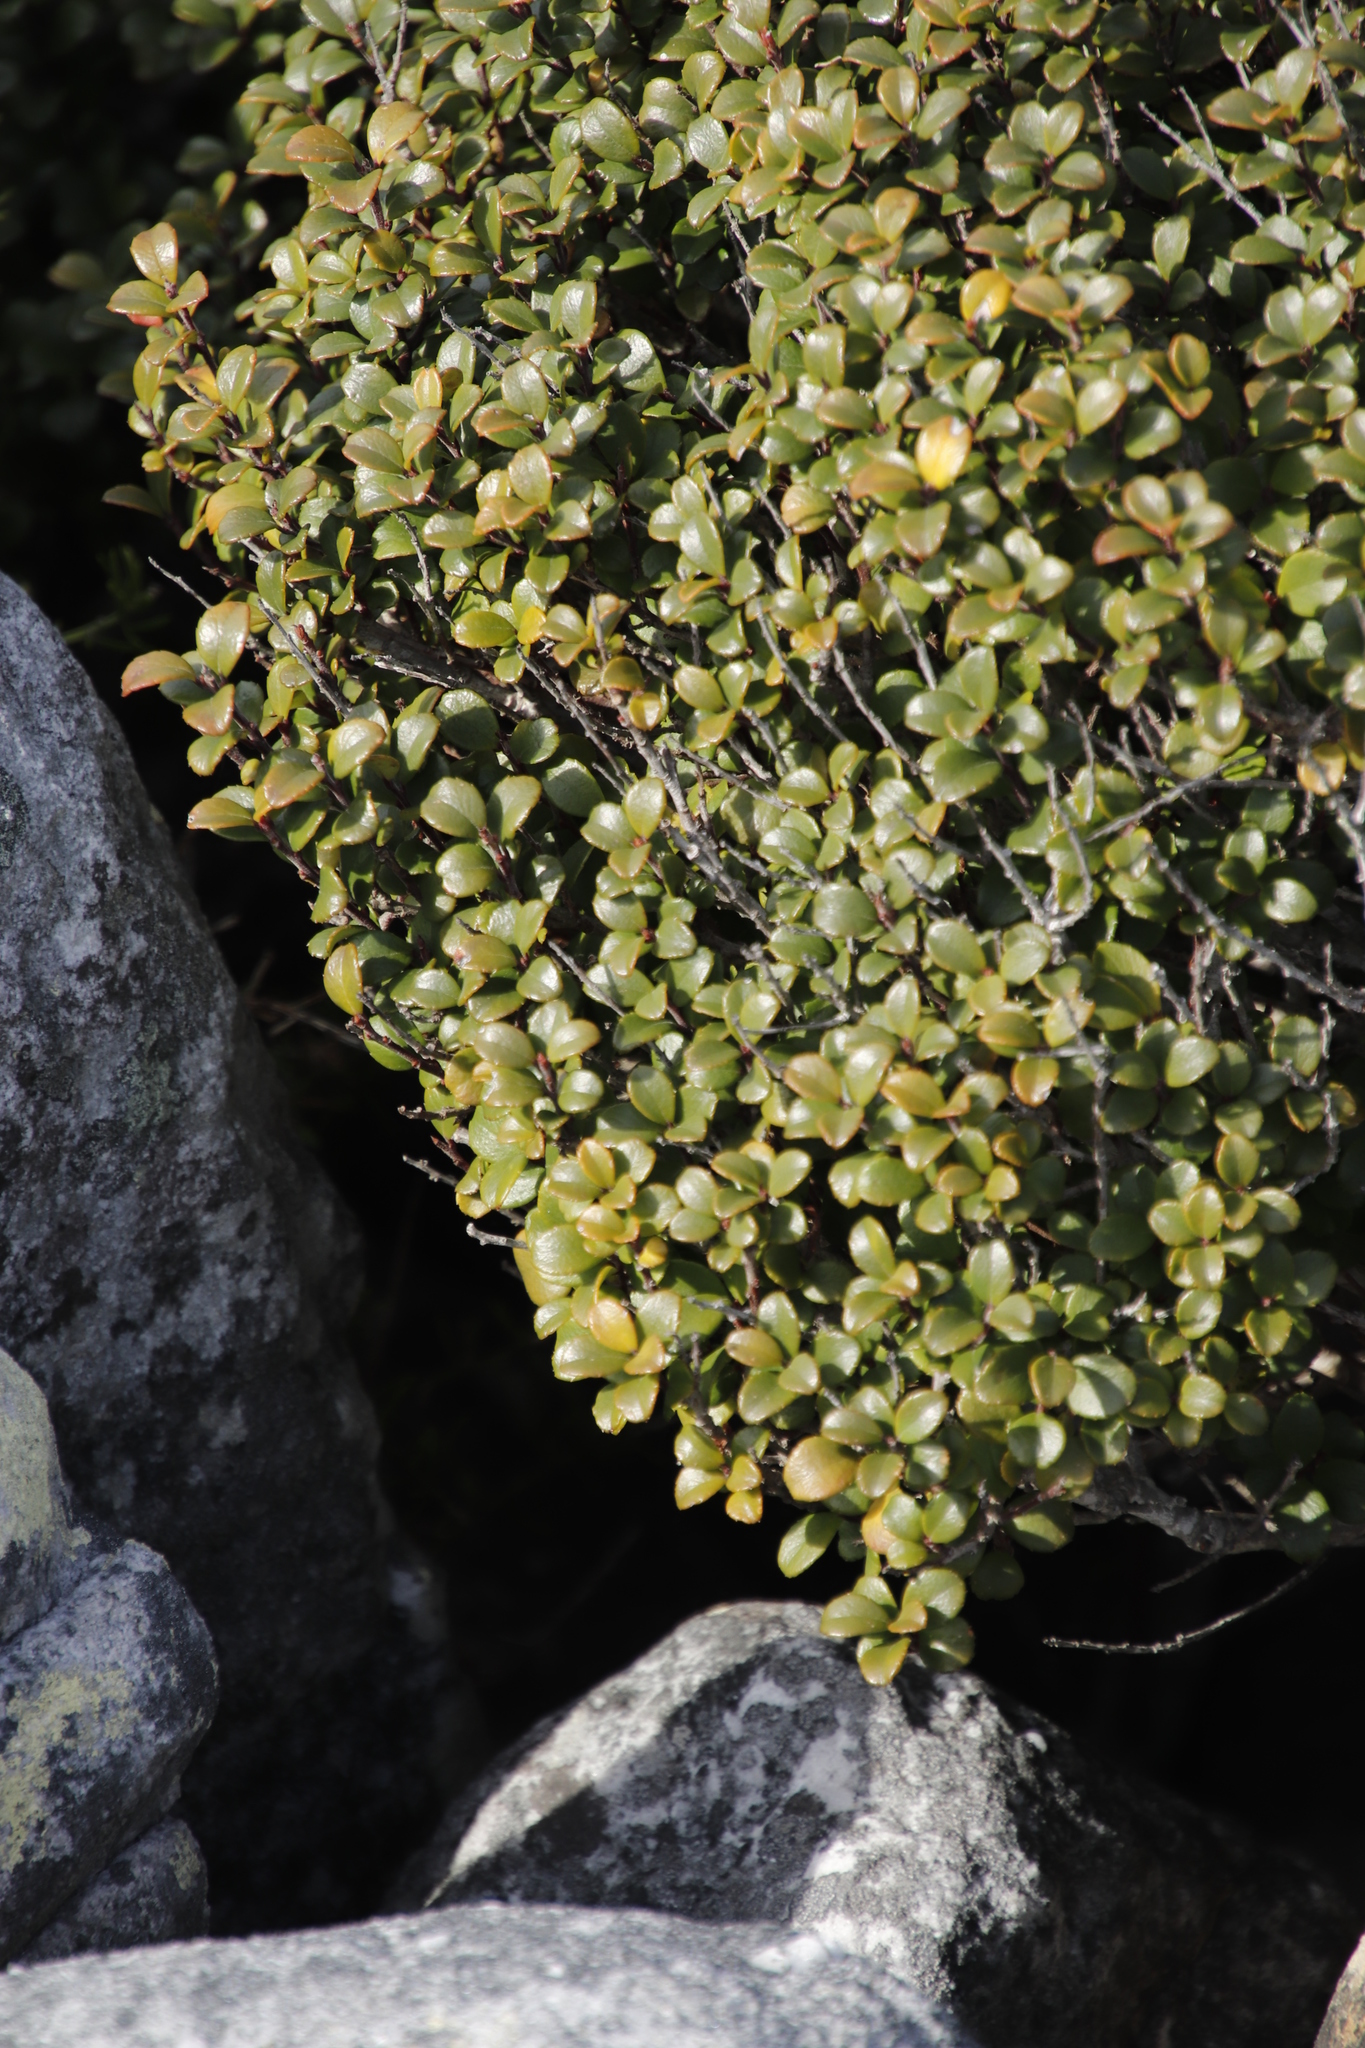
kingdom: Plantae
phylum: Tracheophyta
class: Magnoliopsida
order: Ericales
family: Primulaceae
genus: Myrsine
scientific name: Myrsine africana
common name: African-boxwood
